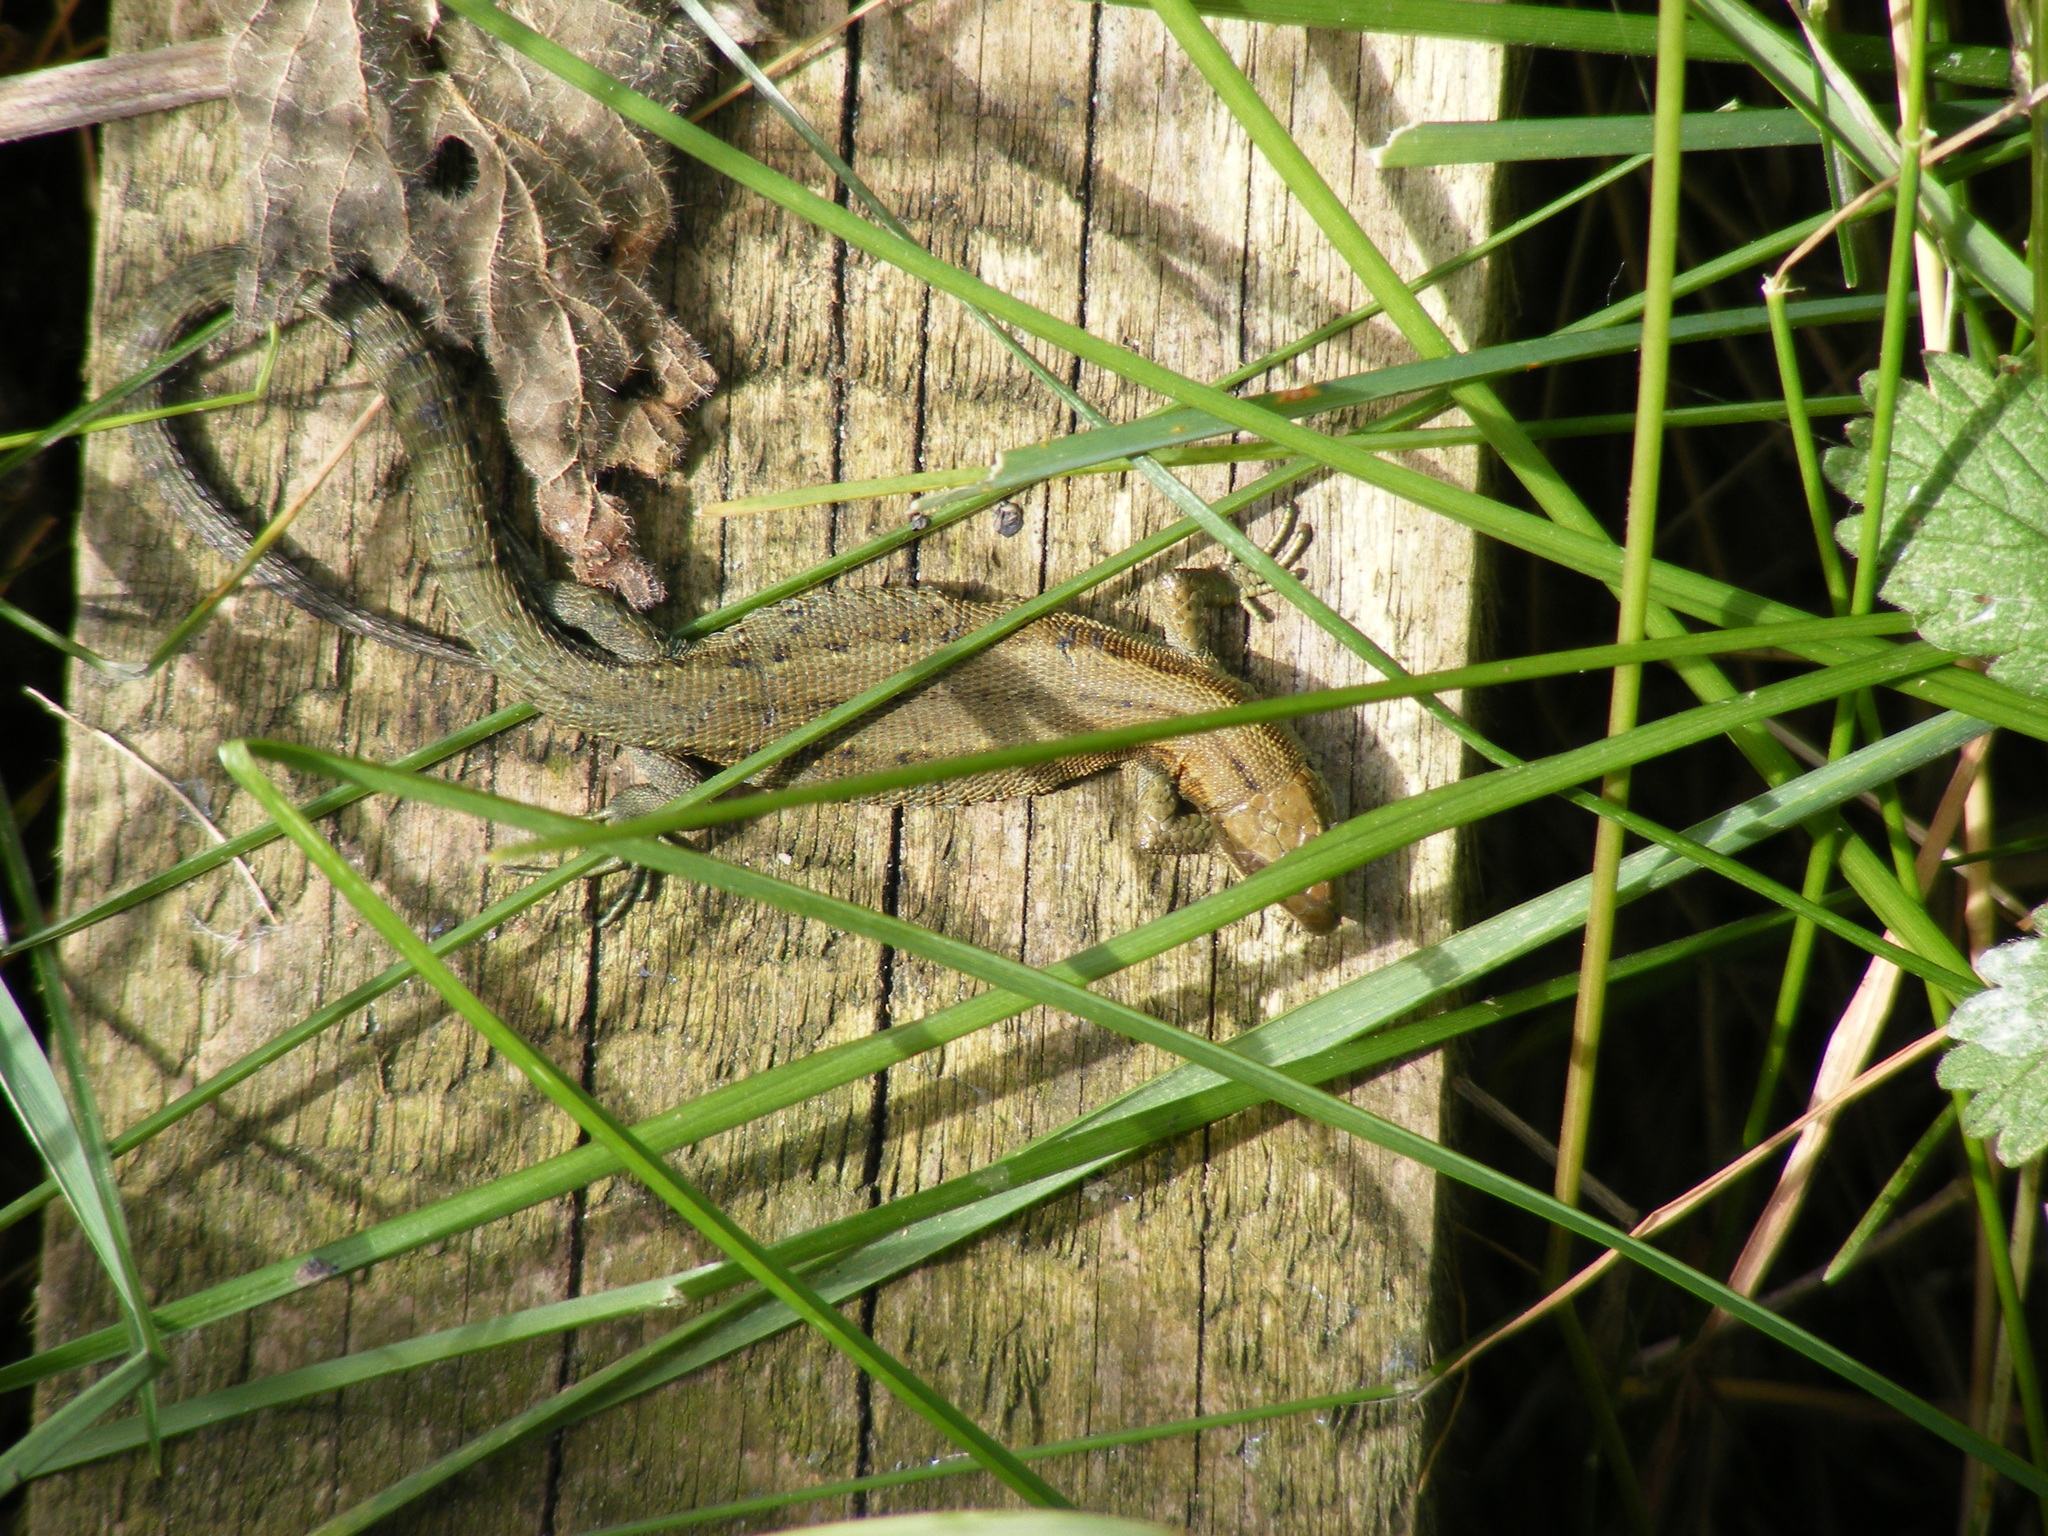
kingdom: Animalia
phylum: Chordata
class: Squamata
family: Lacertidae
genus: Zootoca
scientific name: Zootoca vivipara
